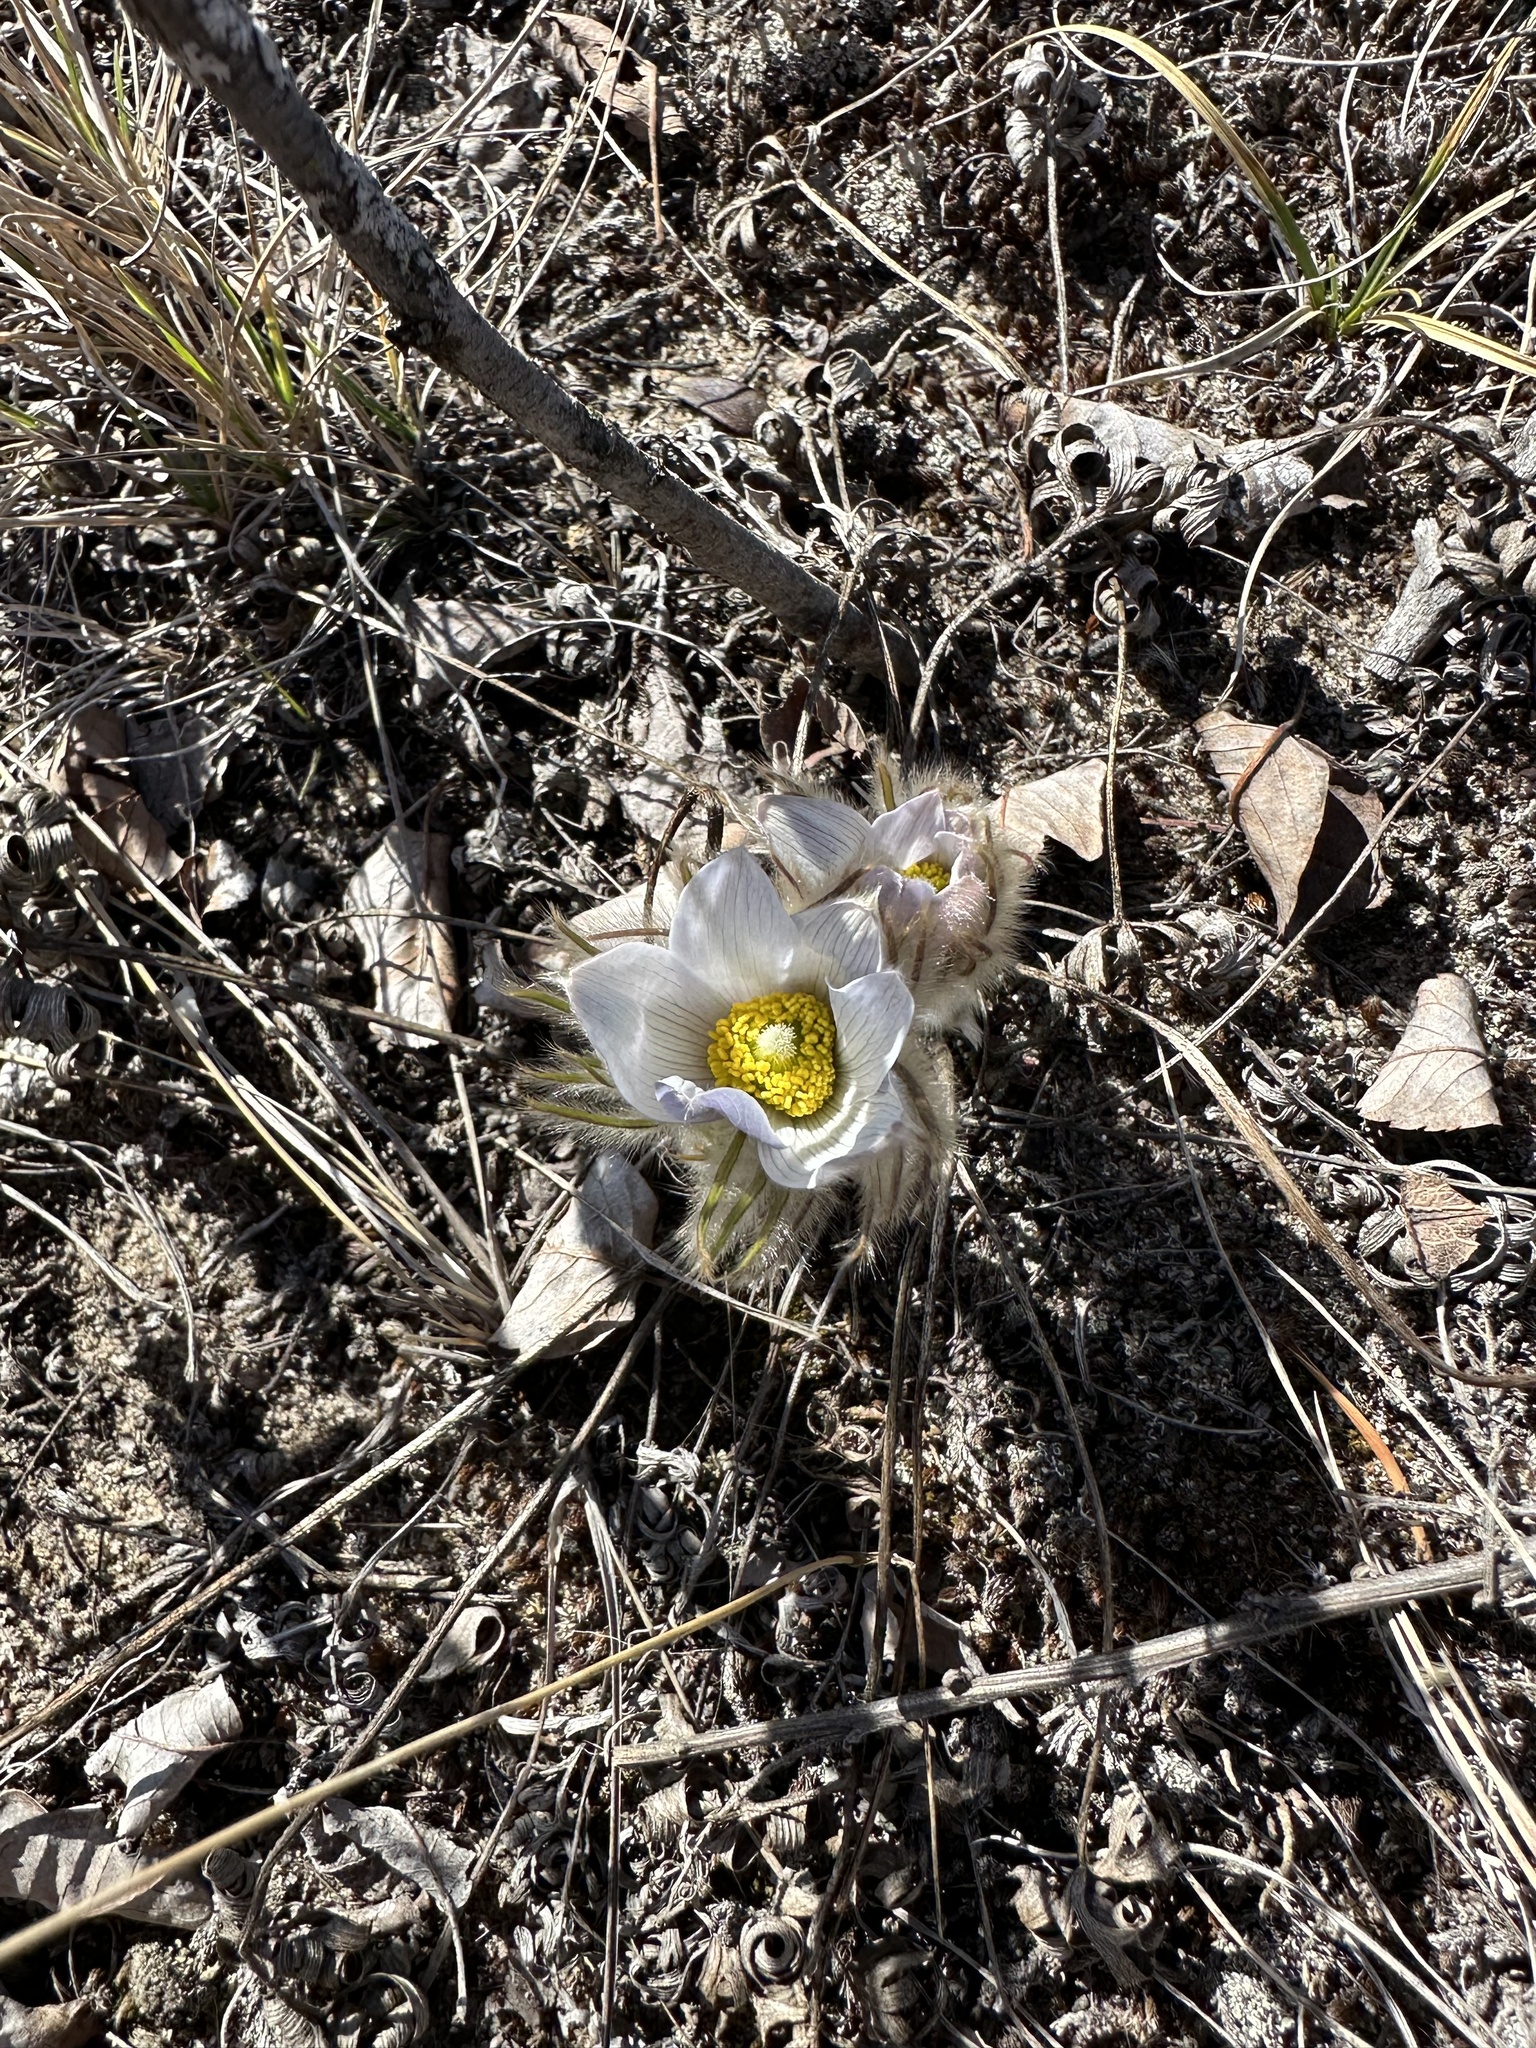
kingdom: Plantae
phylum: Tracheophyta
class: Magnoliopsida
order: Ranunculales
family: Ranunculaceae
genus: Pulsatilla
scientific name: Pulsatilla nuttalliana
